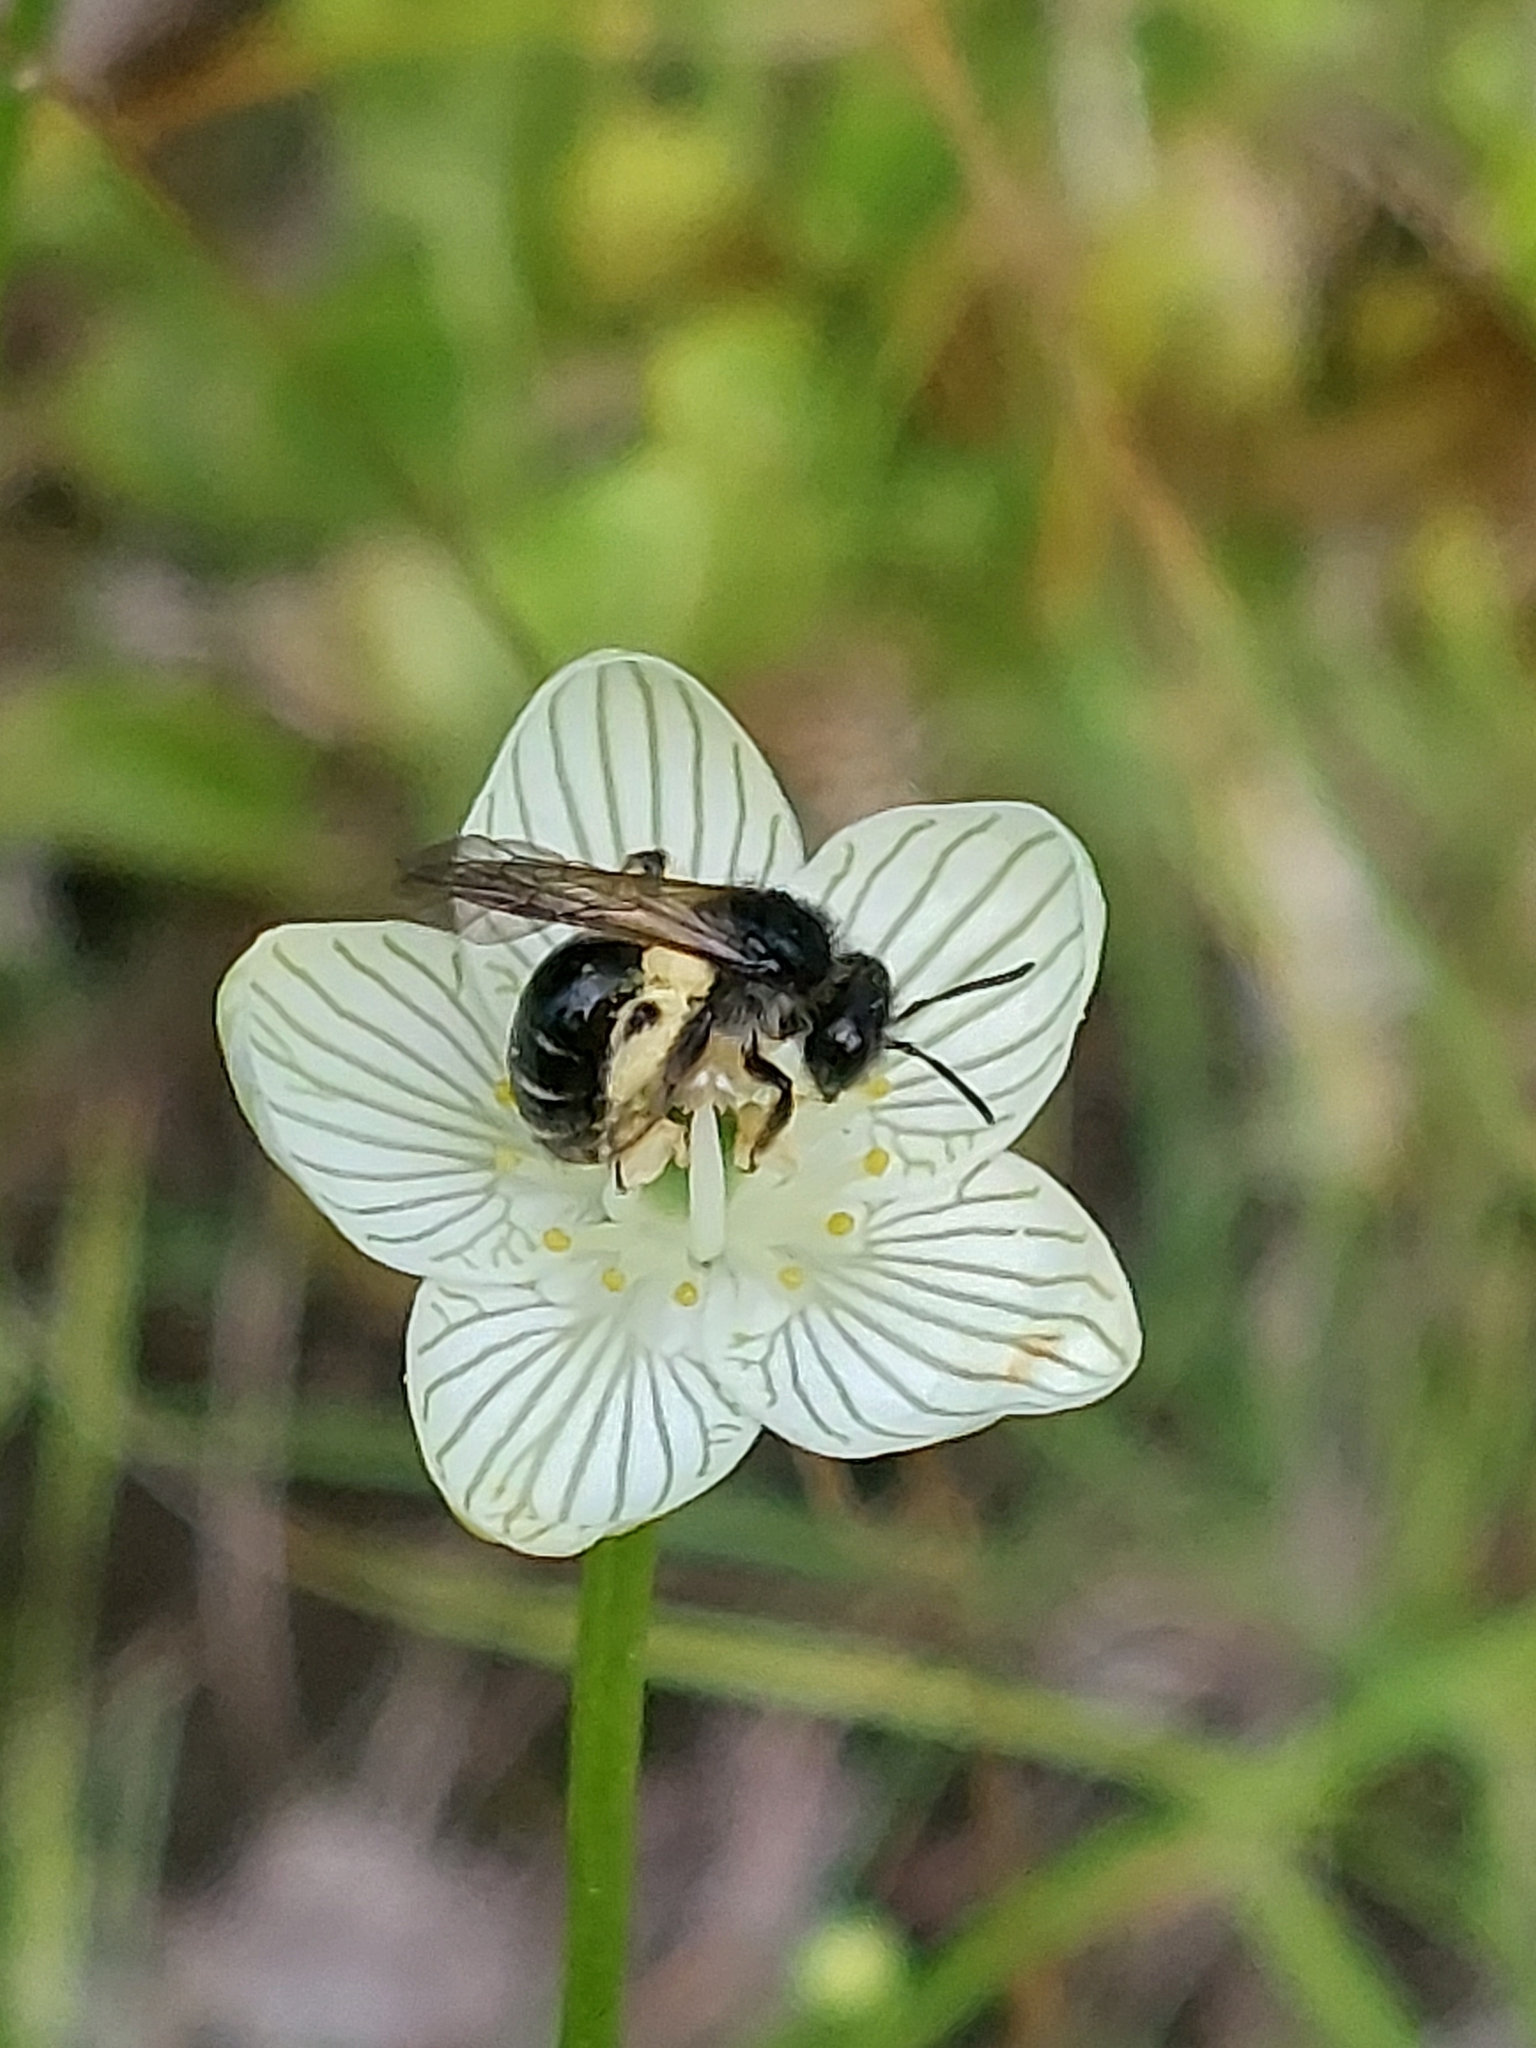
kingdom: Animalia
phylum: Arthropoda
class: Insecta
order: Hymenoptera
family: Andrenidae
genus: Andrena
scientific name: Andrena parnassiae
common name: Parnassia miner
